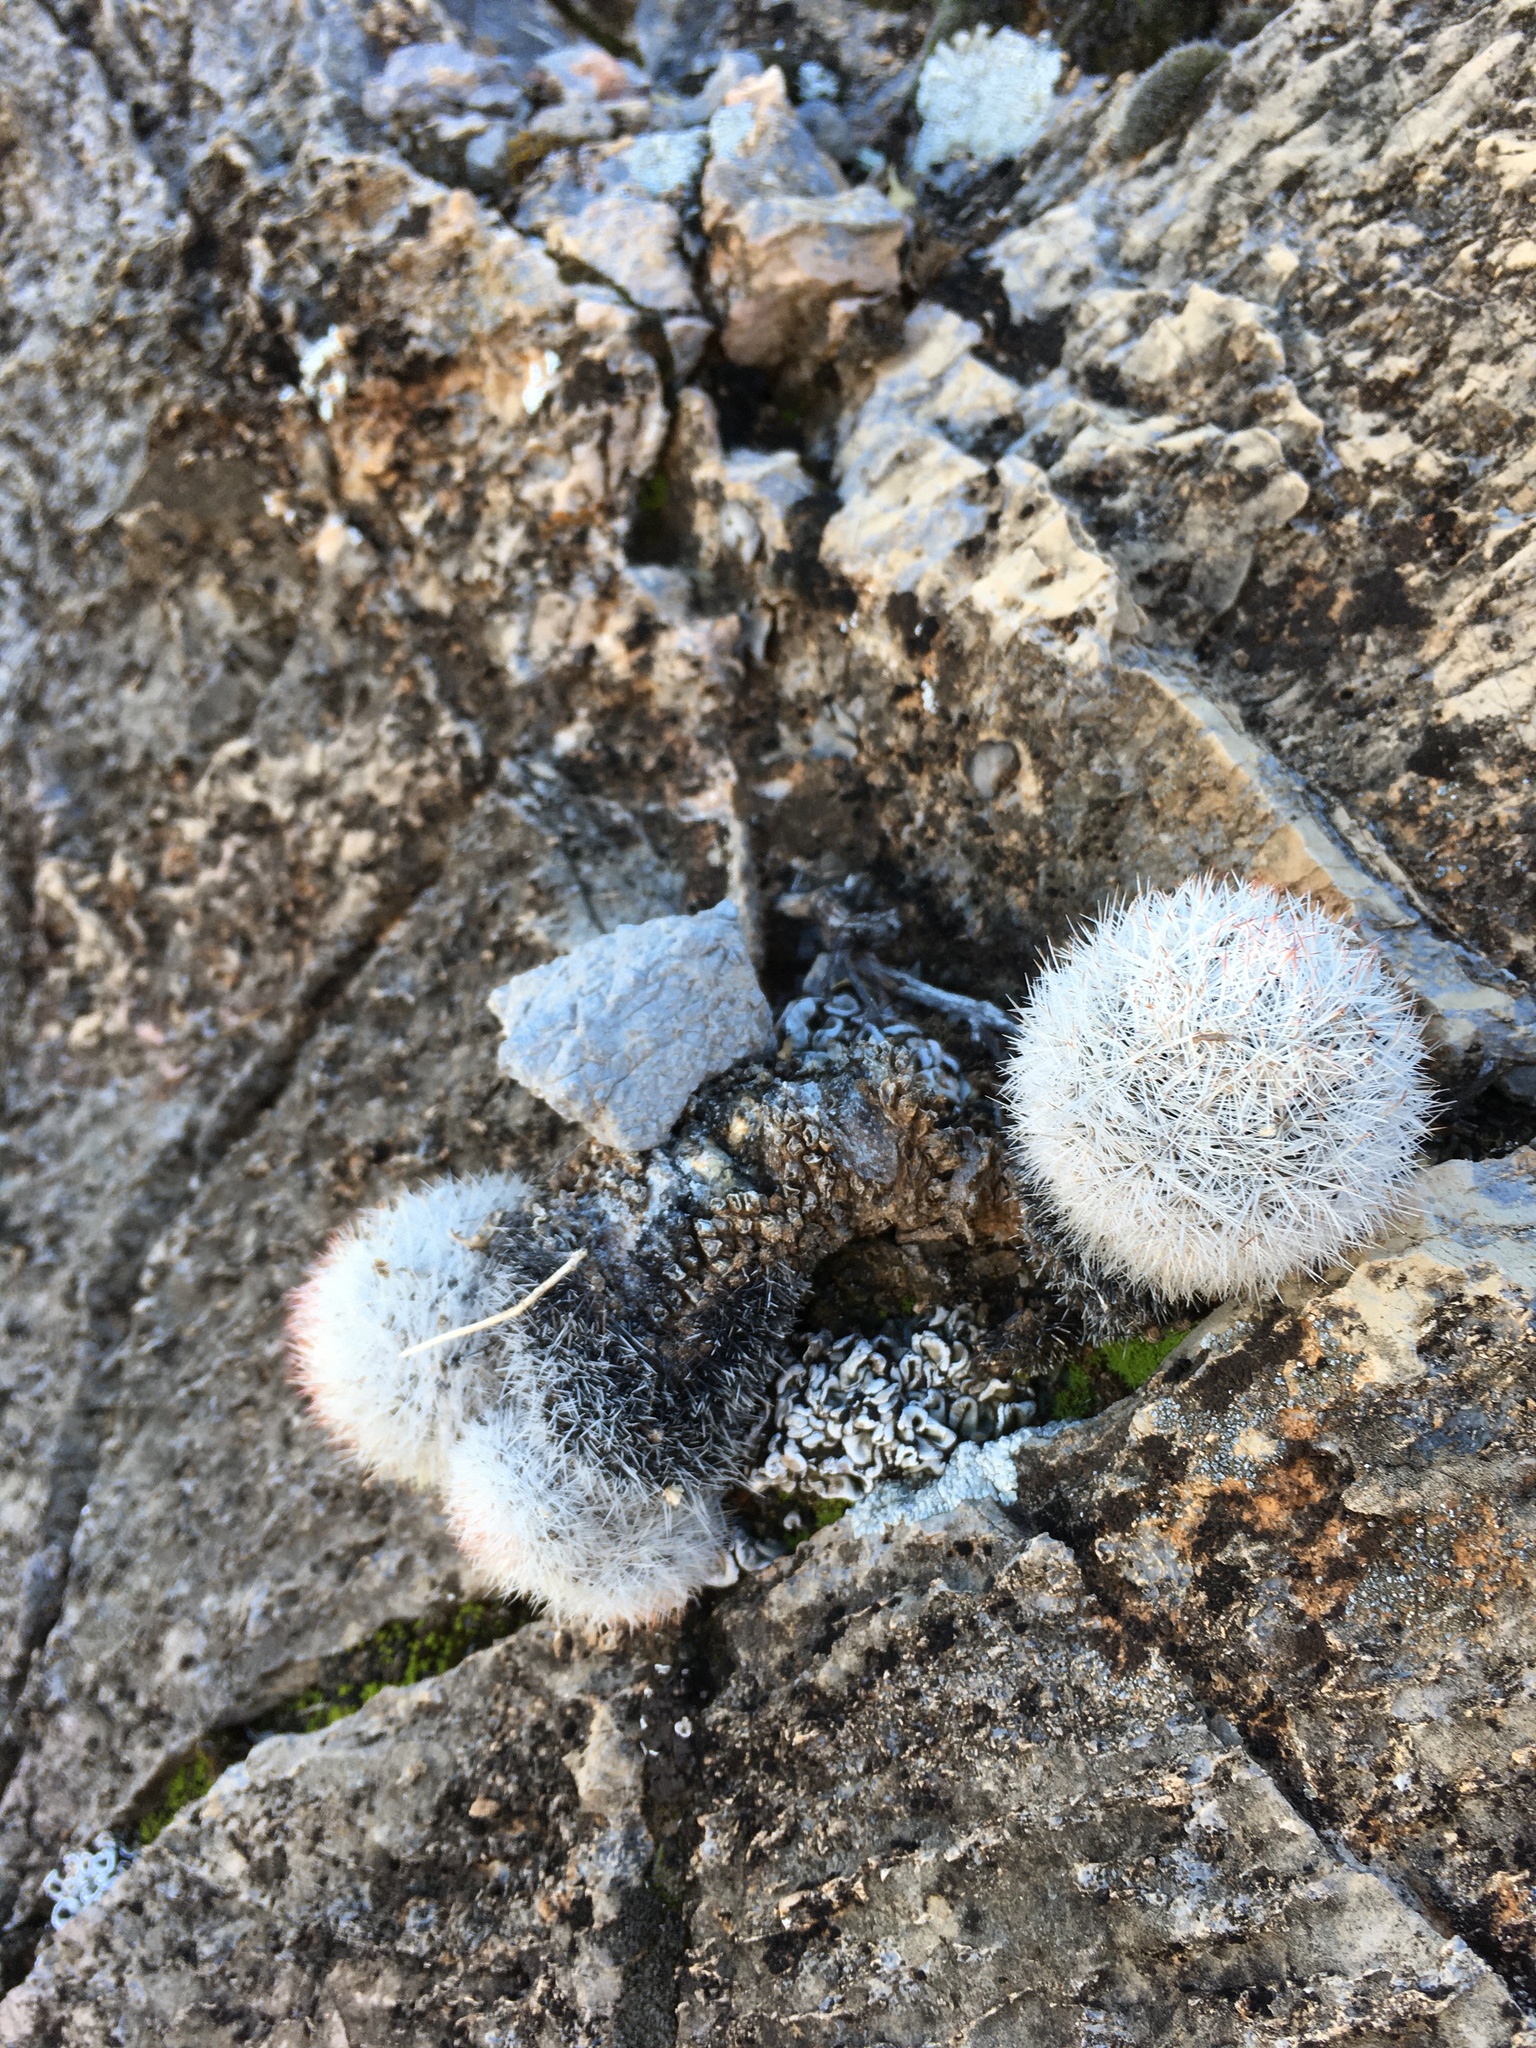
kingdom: Plantae
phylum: Tracheophyta
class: Magnoliopsida
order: Caryophyllales
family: Cactaceae
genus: Pelecyphora
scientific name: Pelecyphora sneedii
